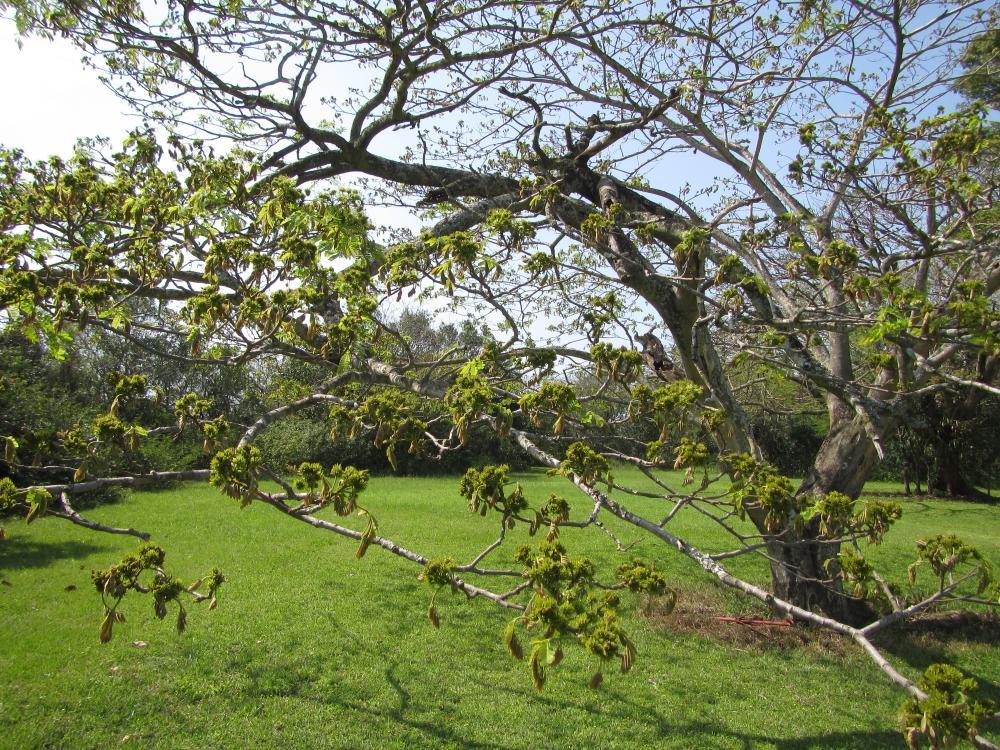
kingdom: Plantae
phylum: Tracheophyta
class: Magnoliopsida
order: Fabales
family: Fabaceae
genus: Albizia
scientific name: Albizia adianthifolia
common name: West african albizia
